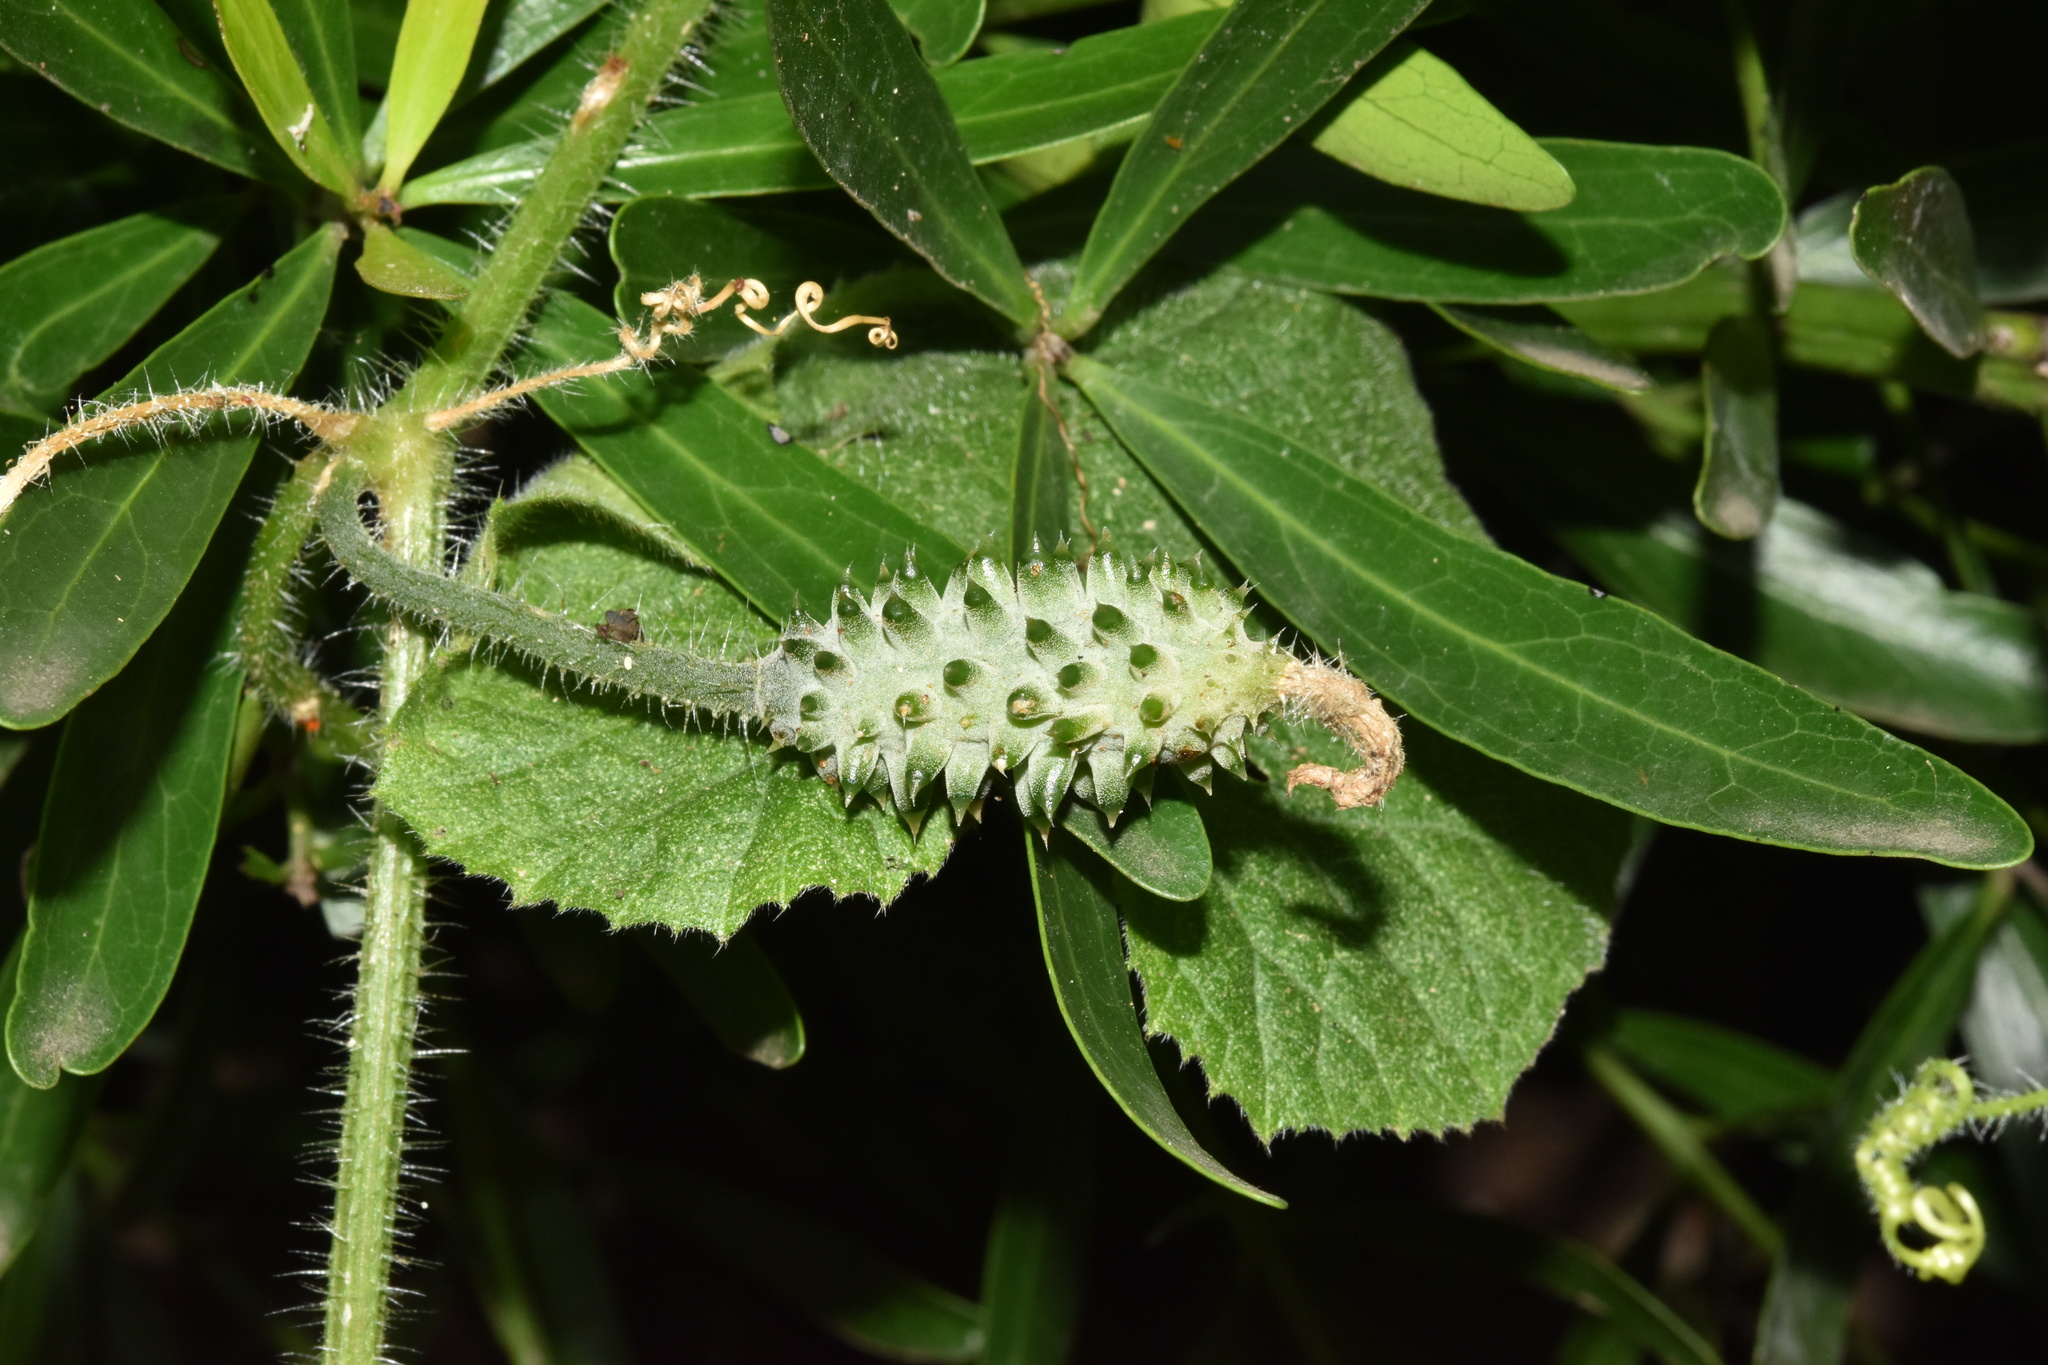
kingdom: Plantae
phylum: Tracheophyta
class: Magnoliopsida
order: Cucurbitales
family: Cucurbitaceae
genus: Cucumis
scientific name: Cucumis metuliferus
